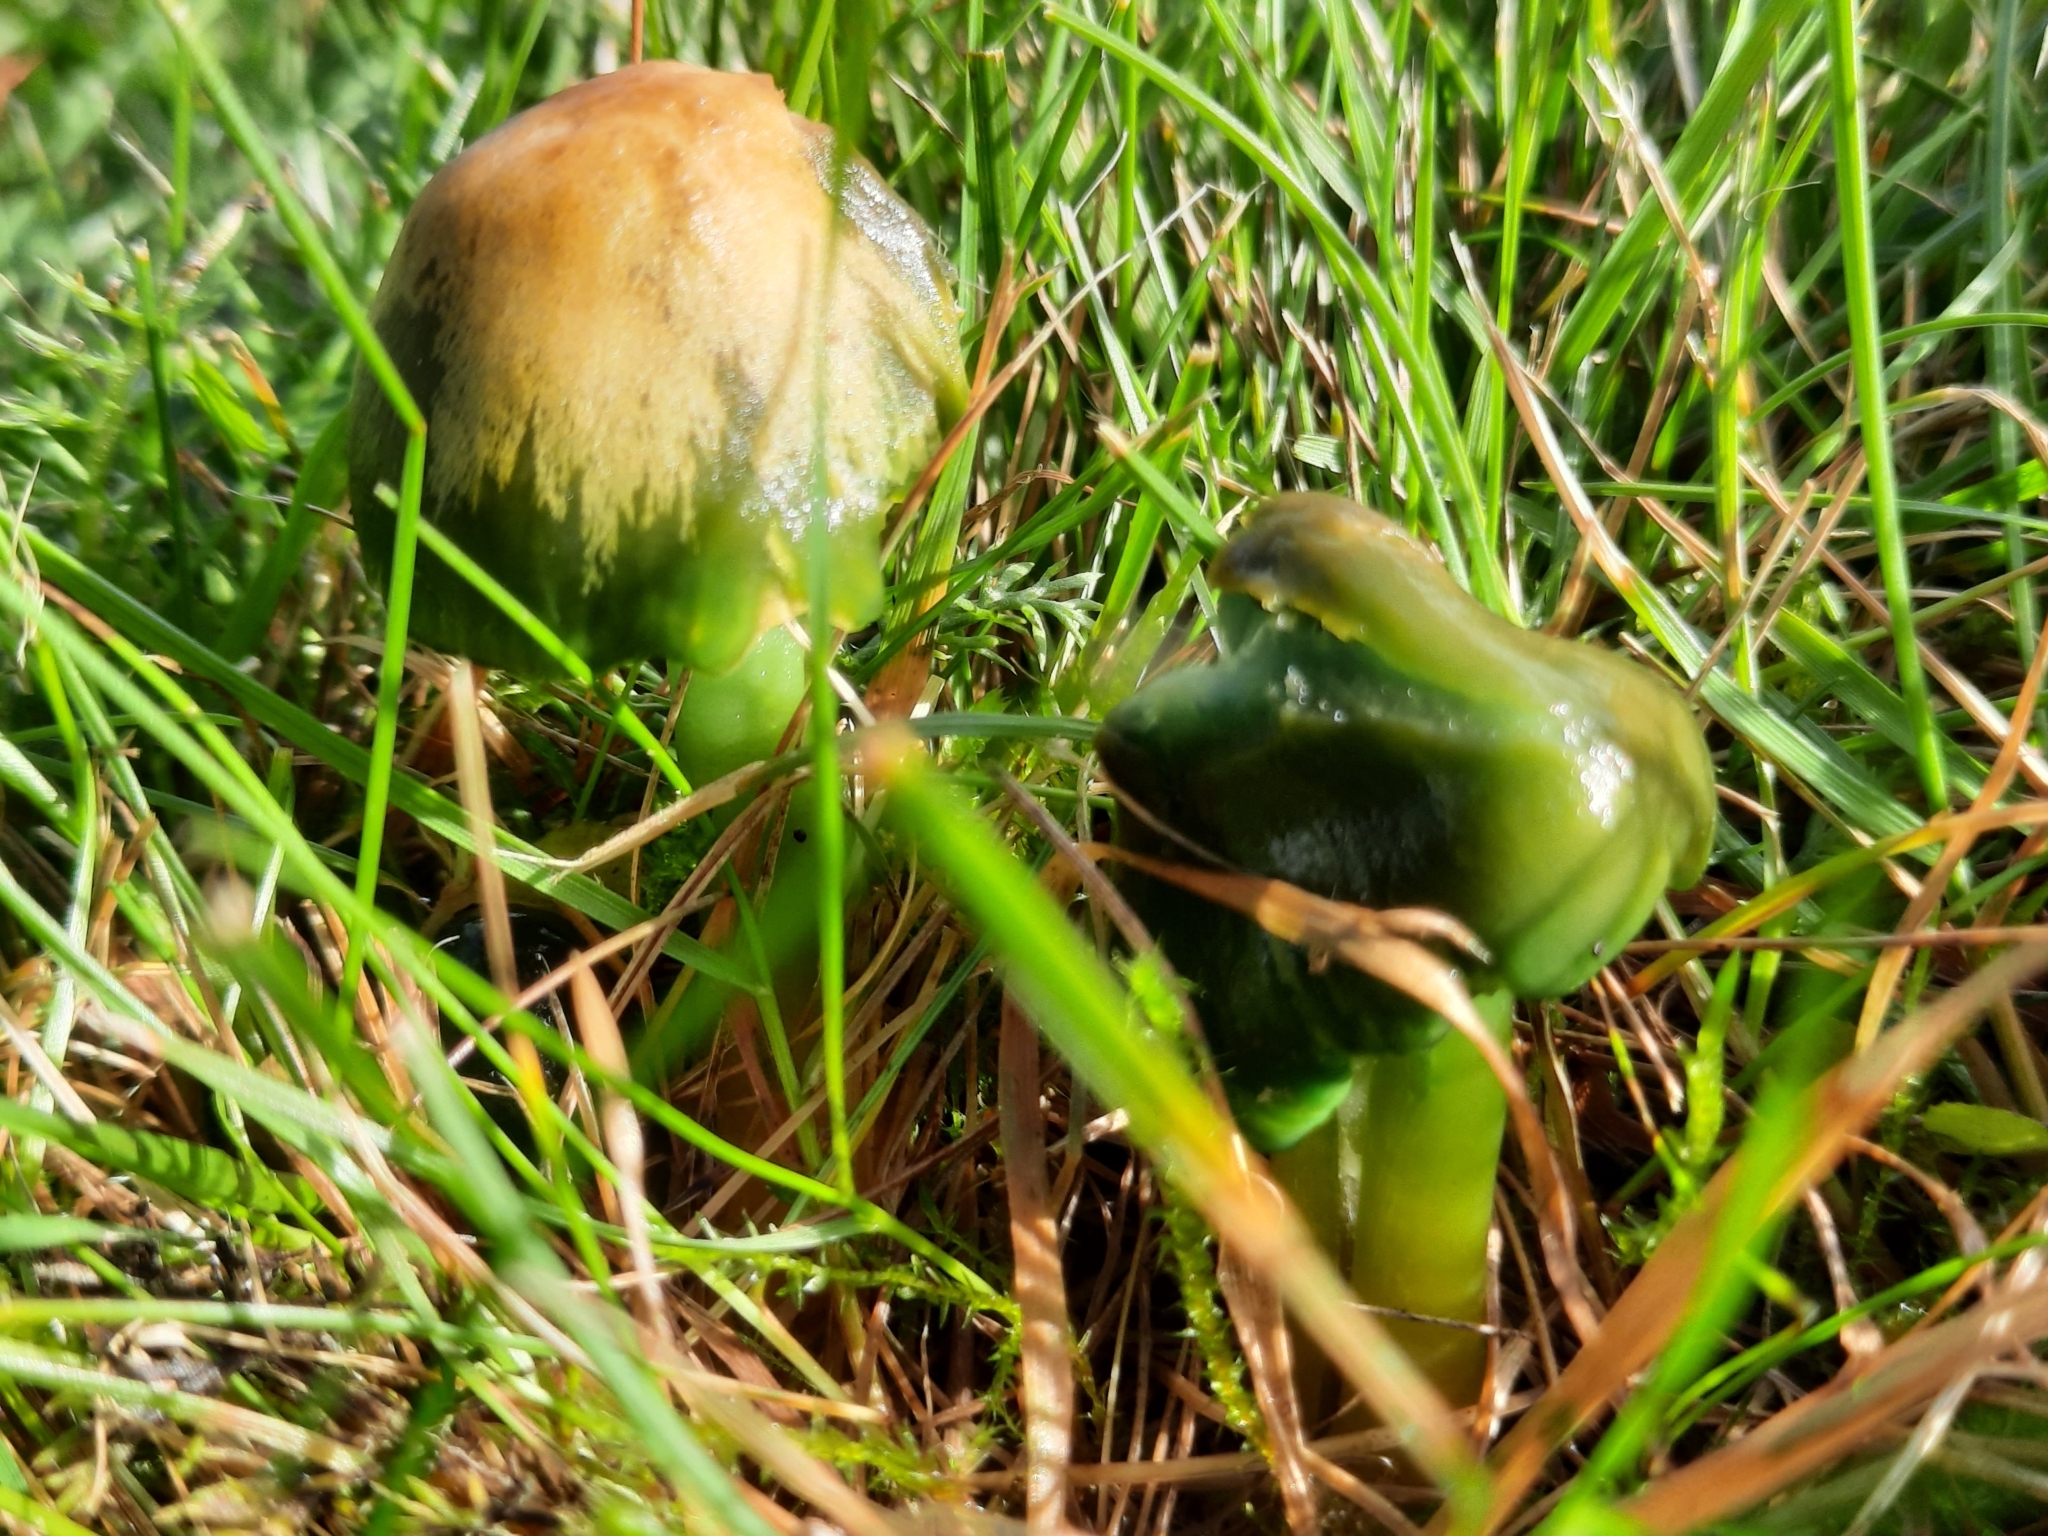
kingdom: Fungi
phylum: Basidiomycota
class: Agaricomycetes
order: Agaricales
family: Hygrophoraceae
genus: Gliophorus
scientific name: Gliophorus psittacinus
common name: Parrot wax-cap
